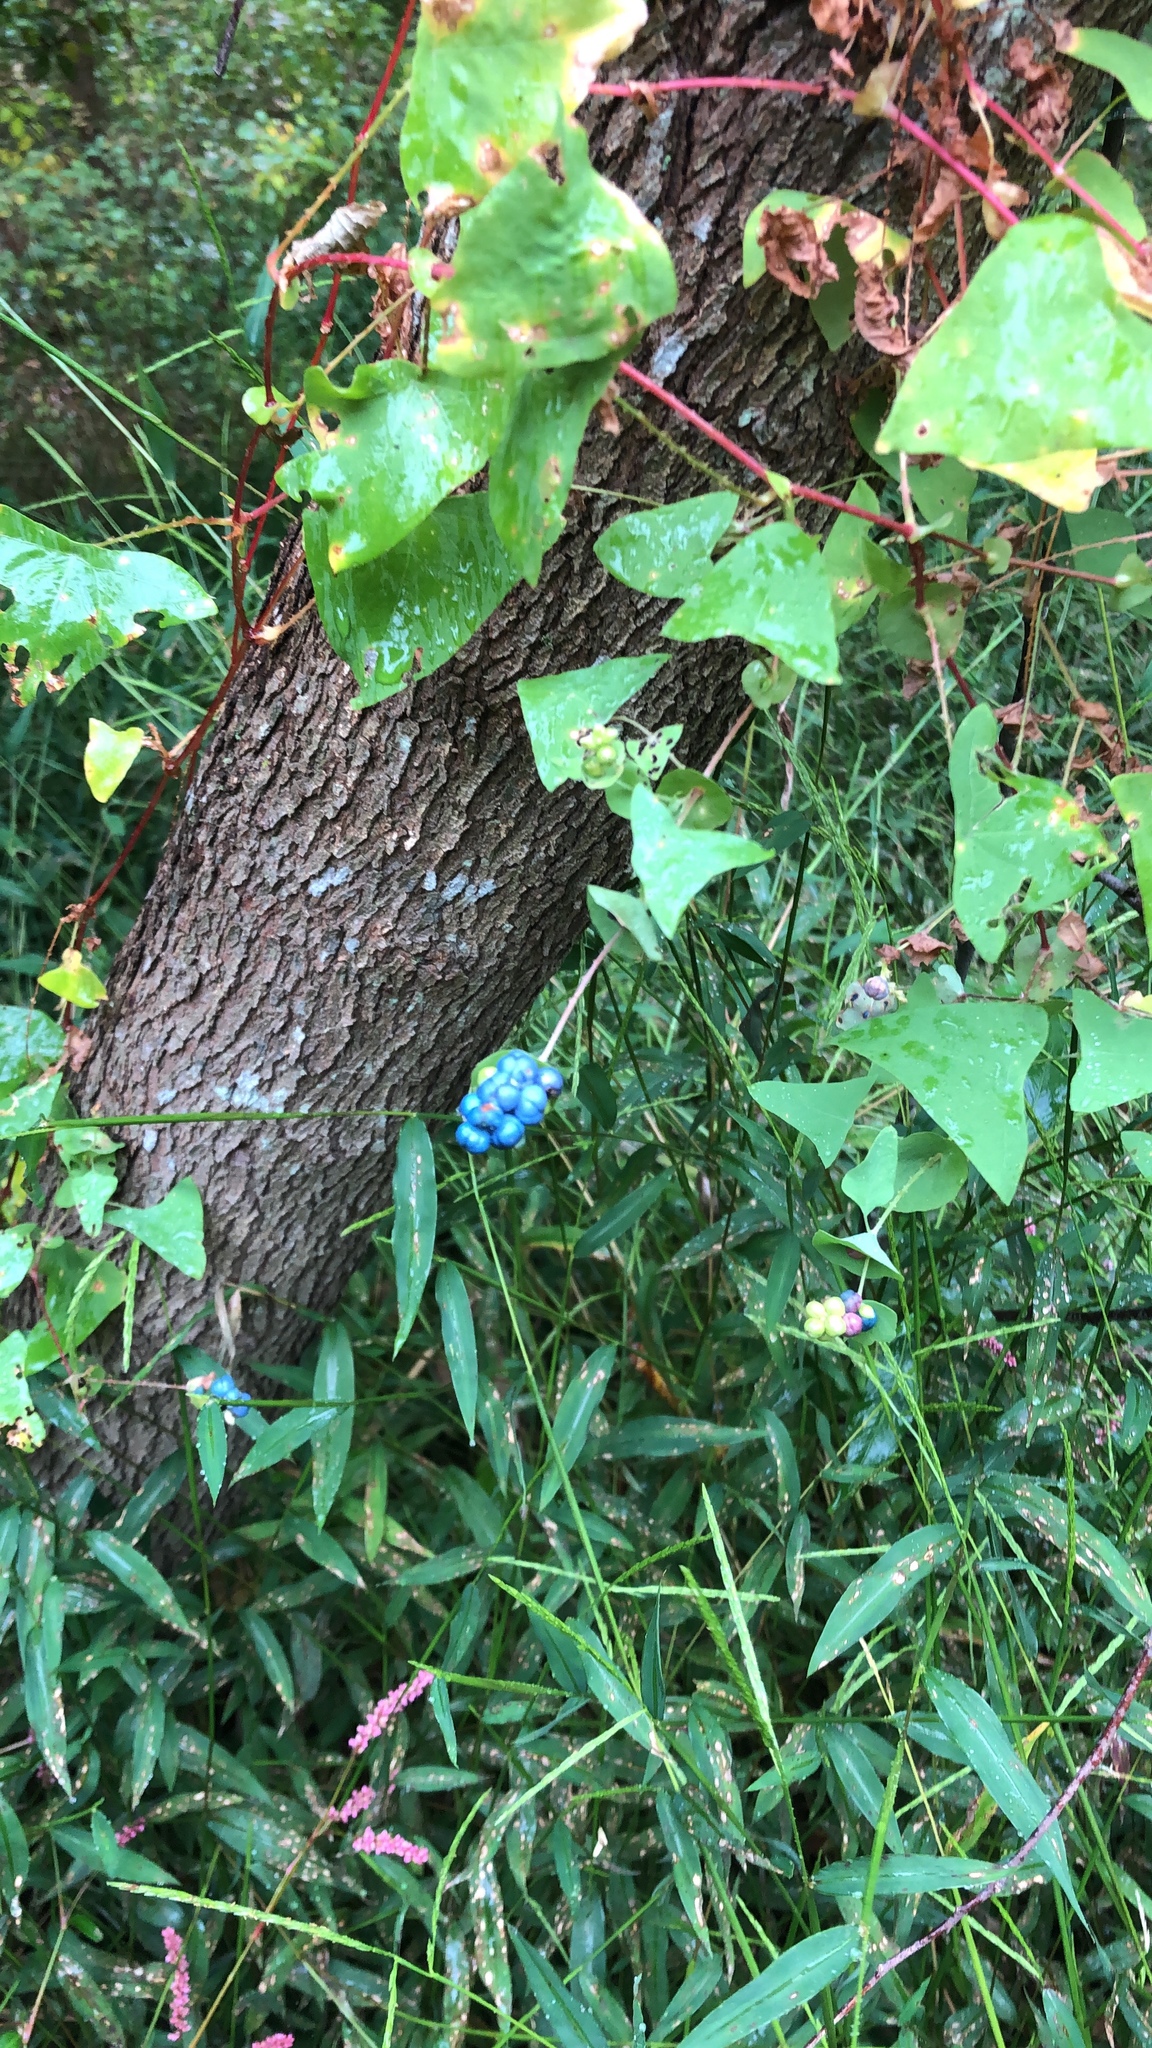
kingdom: Plantae
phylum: Tracheophyta
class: Magnoliopsida
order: Caryophyllales
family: Polygonaceae
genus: Persicaria
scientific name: Persicaria perfoliata
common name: Asiatic tearthumb
